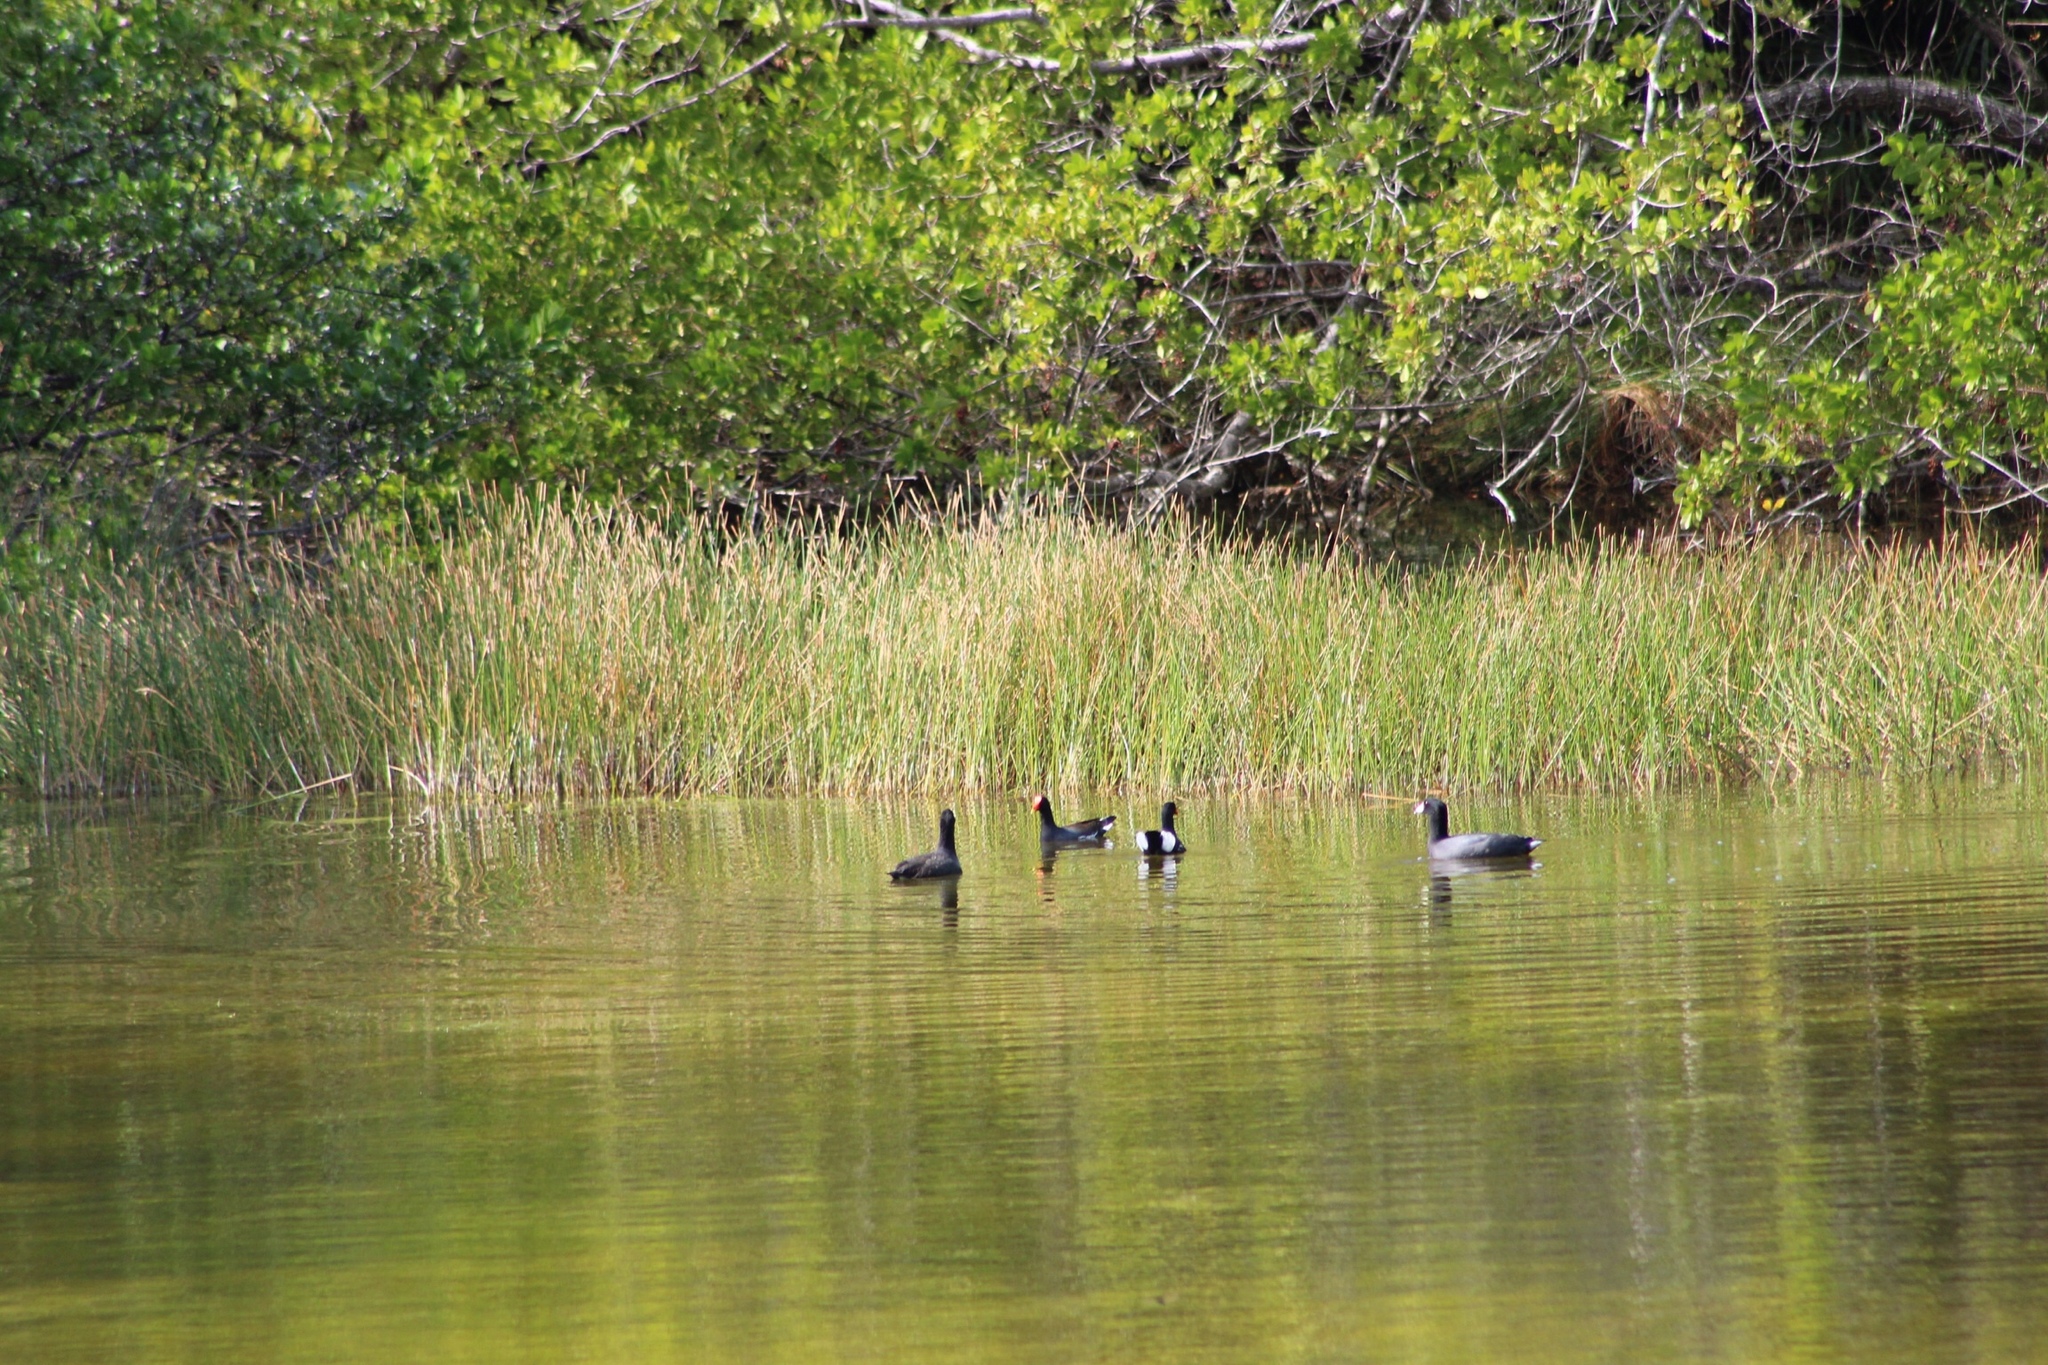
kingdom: Animalia
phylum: Chordata
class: Aves
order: Gruiformes
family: Rallidae
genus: Gallinula
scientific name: Gallinula chloropus
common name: Common moorhen
